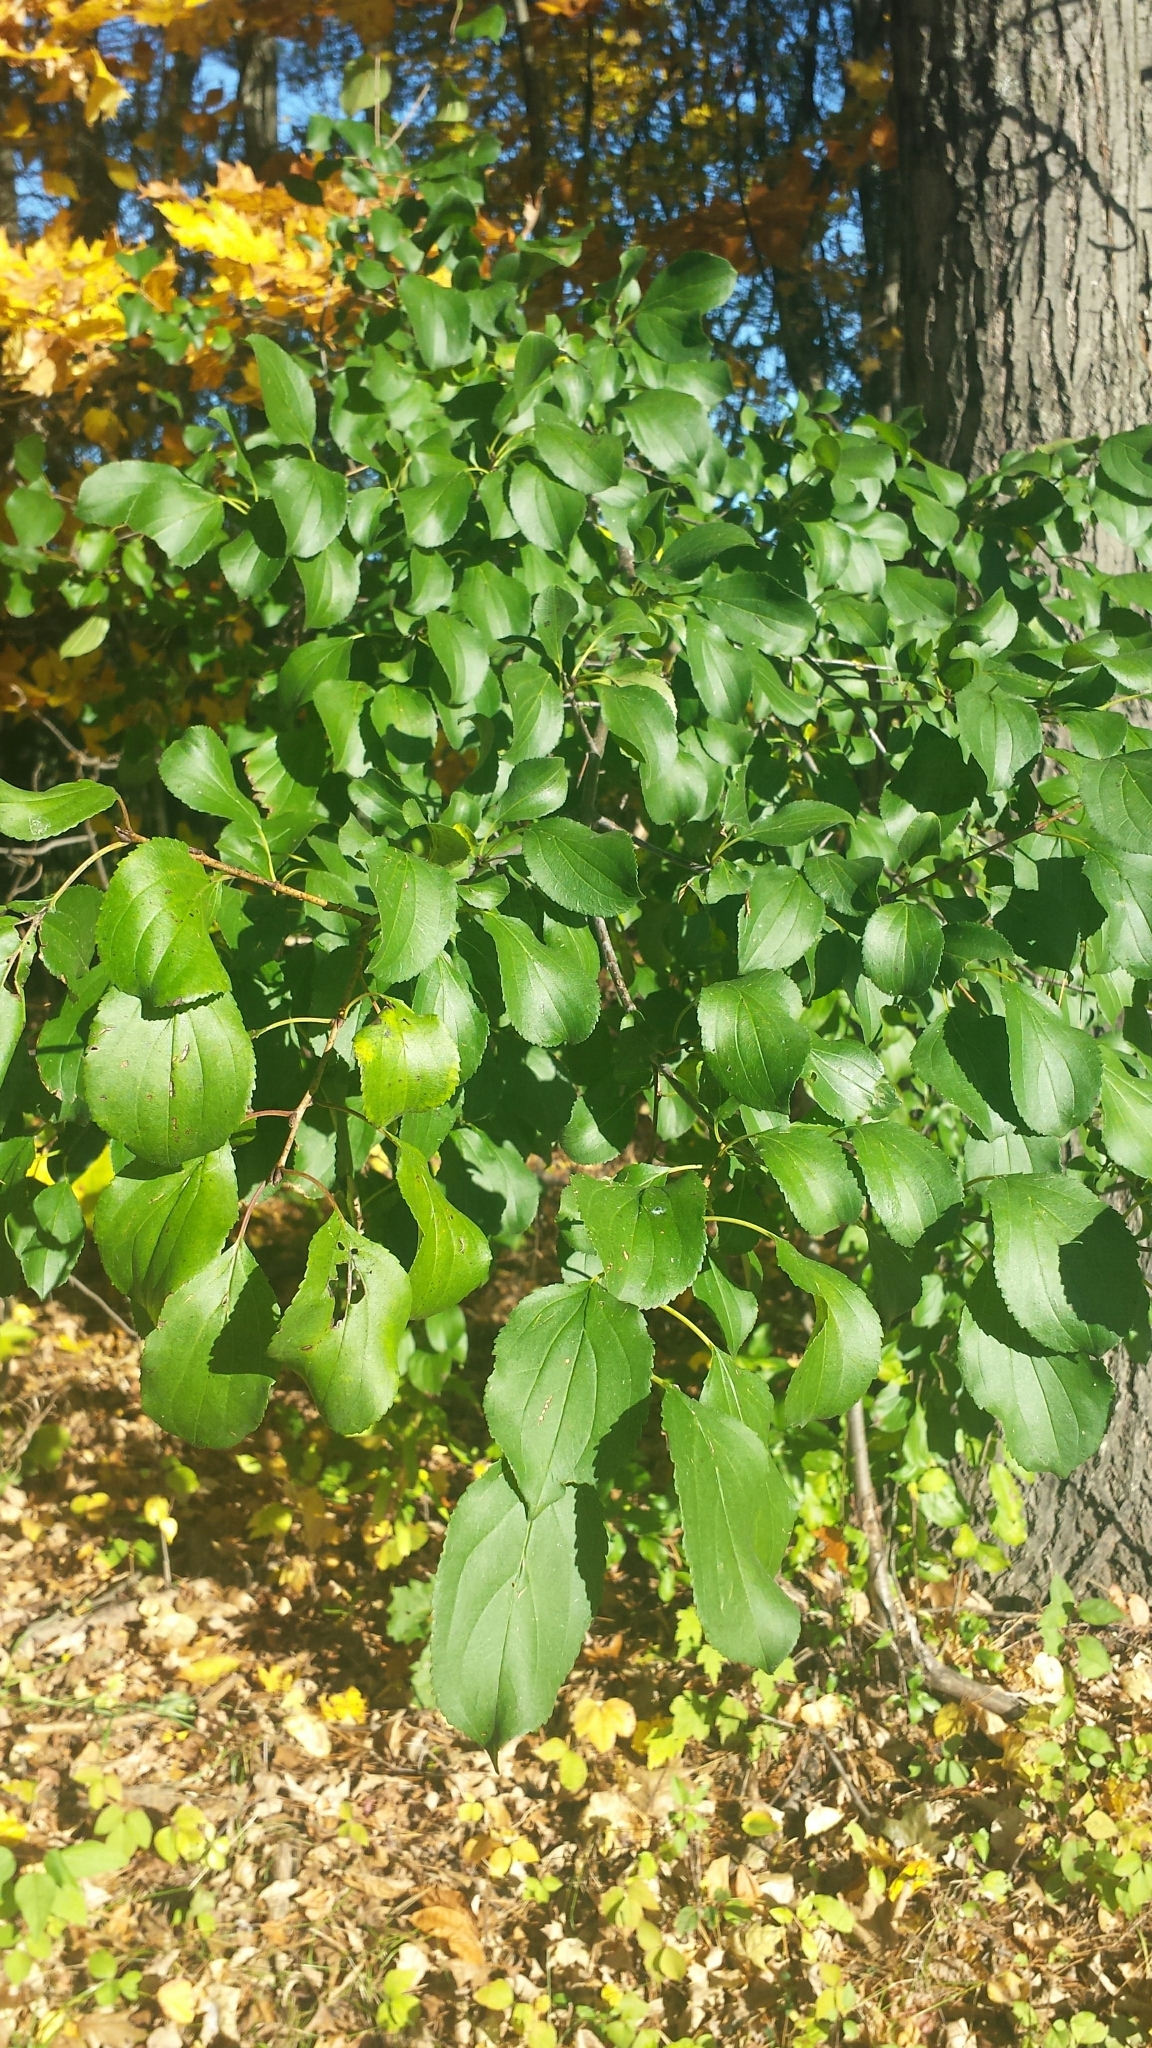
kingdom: Plantae
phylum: Tracheophyta
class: Magnoliopsida
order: Rosales
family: Rhamnaceae
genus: Rhamnus
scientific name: Rhamnus cathartica
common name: Common buckthorn
